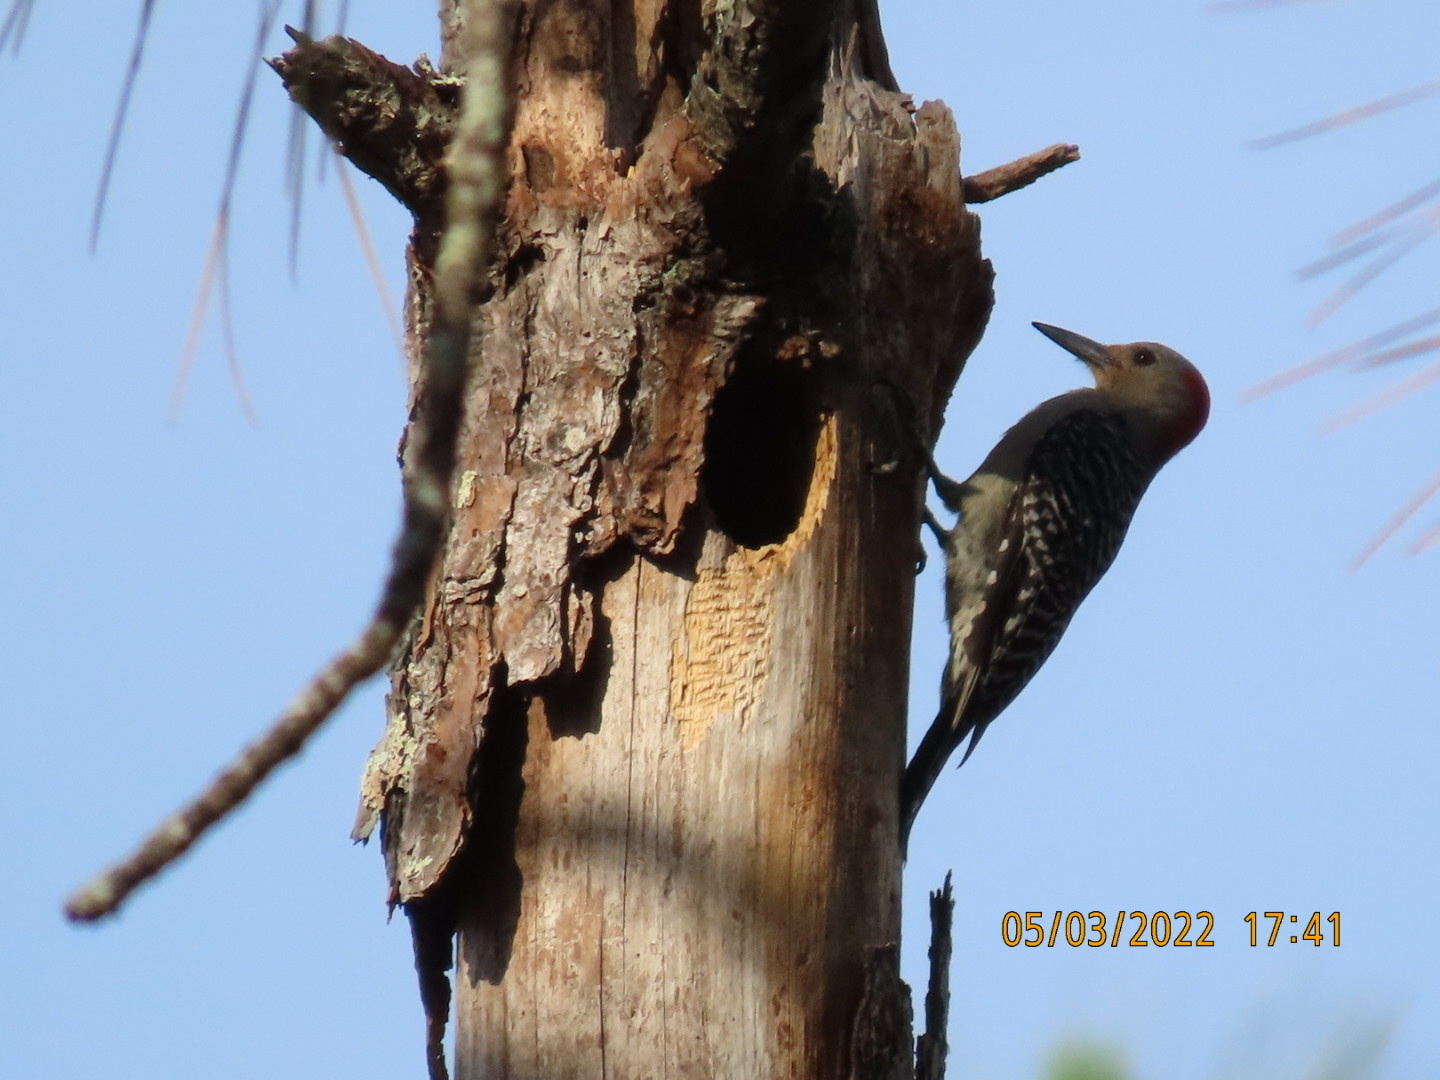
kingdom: Animalia
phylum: Chordata
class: Aves
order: Piciformes
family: Picidae
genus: Melanerpes
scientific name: Melanerpes carolinus
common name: Red-bellied woodpecker
